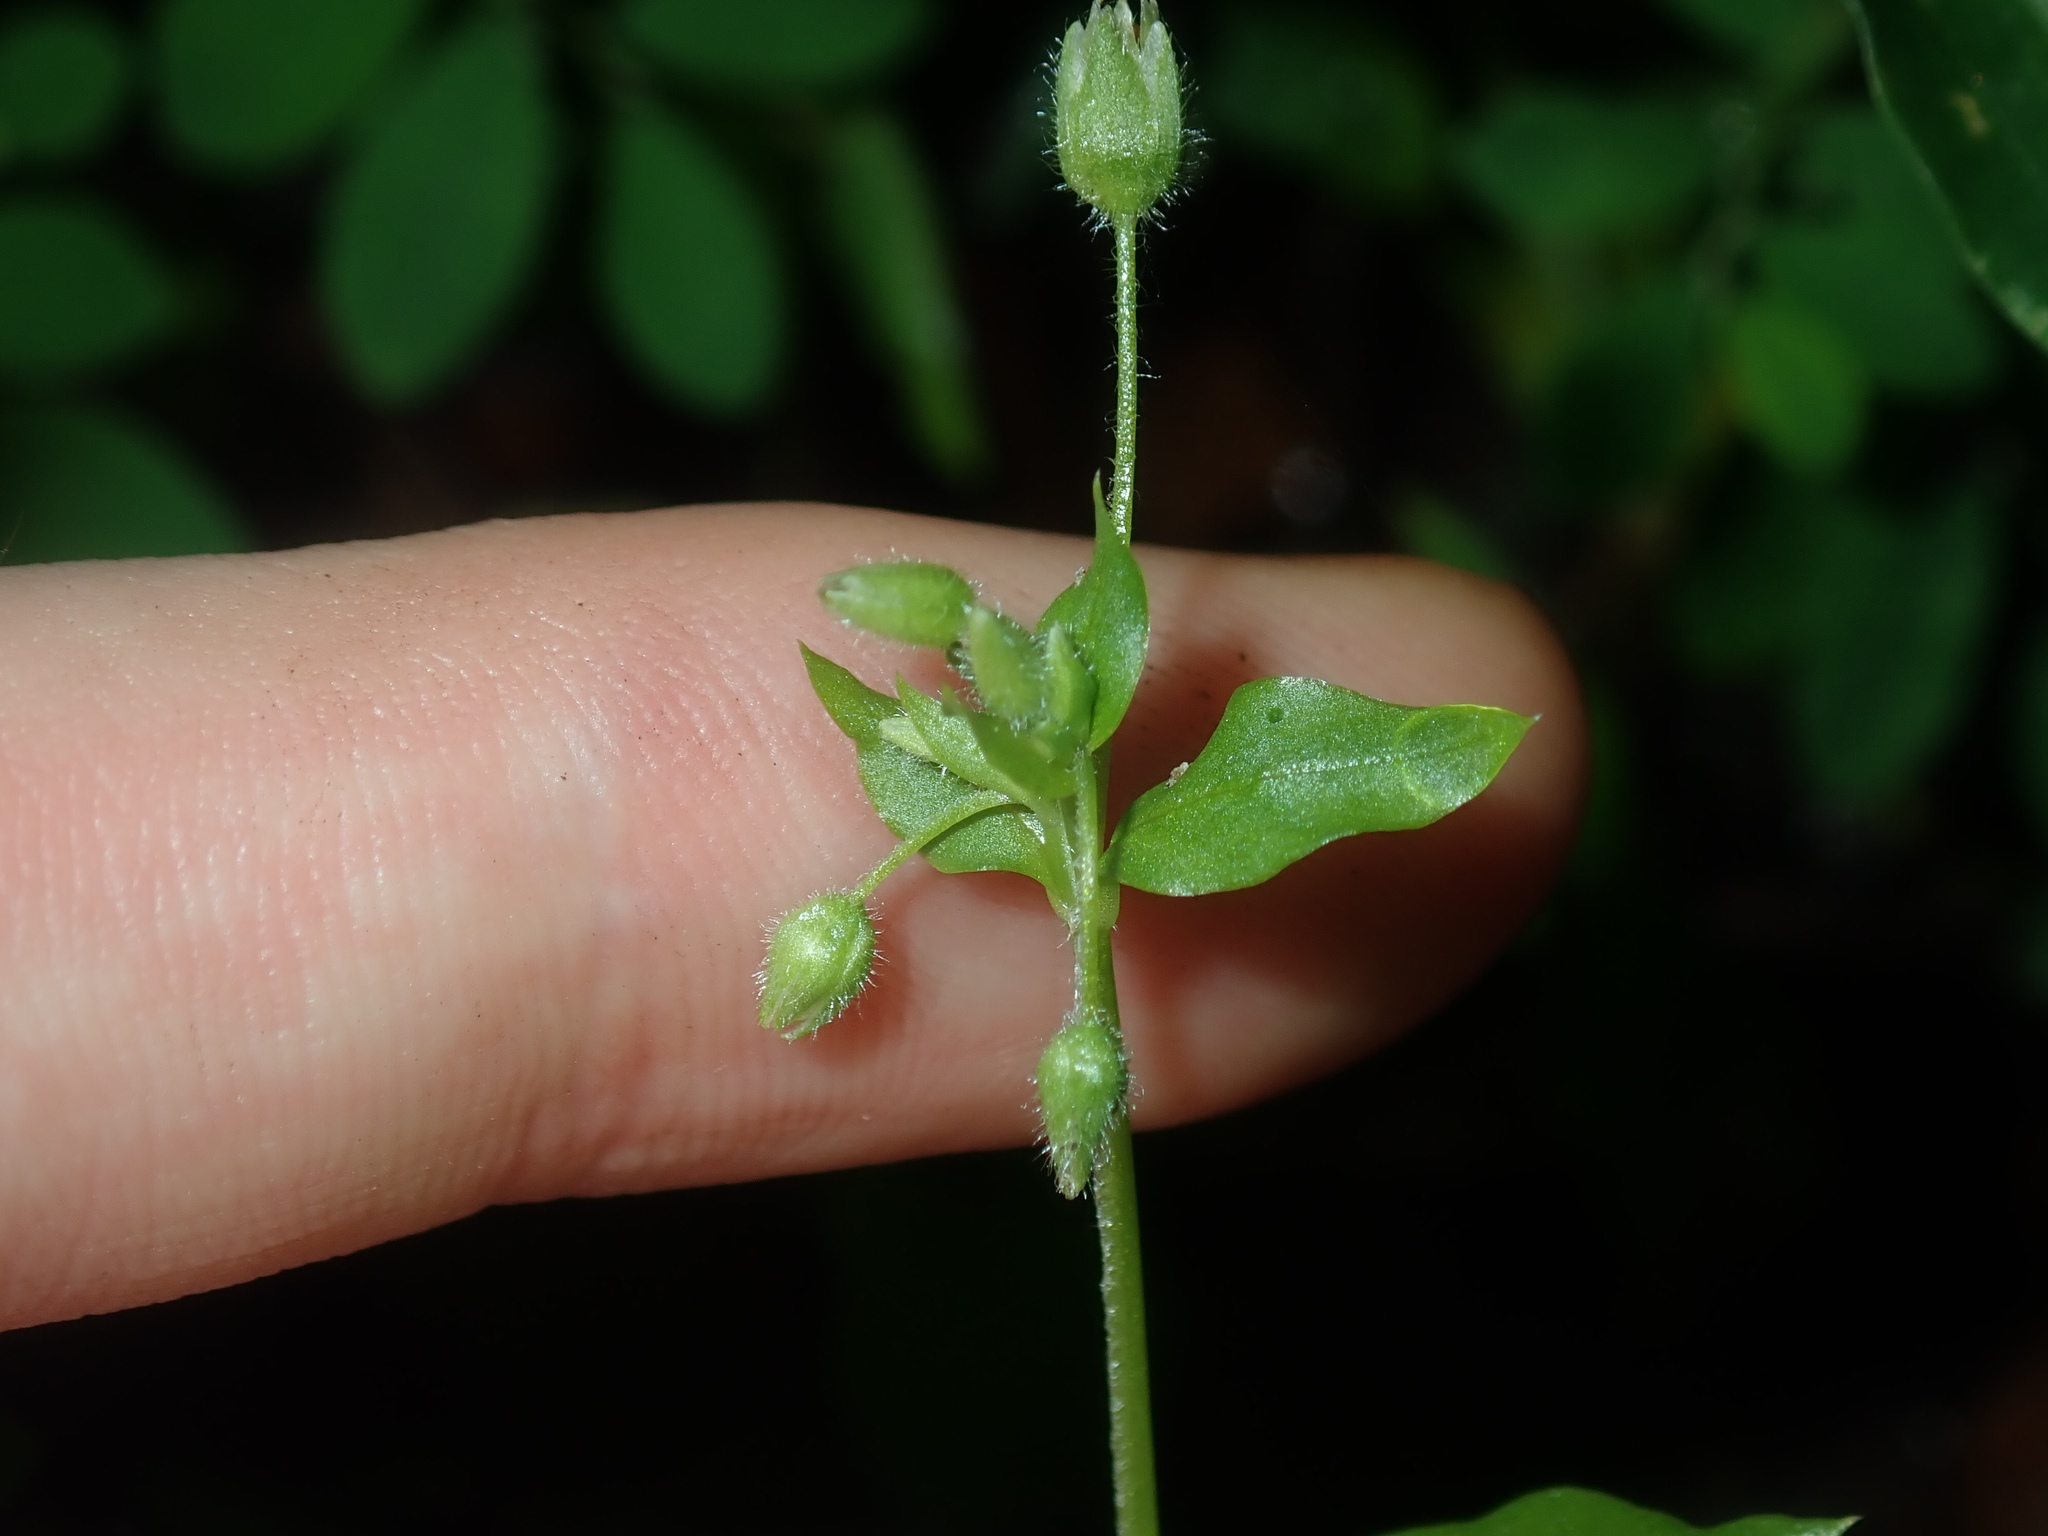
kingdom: Plantae
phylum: Tracheophyta
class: Magnoliopsida
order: Caryophyllales
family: Caryophyllaceae
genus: Stellaria
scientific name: Stellaria media
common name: Common chickweed
